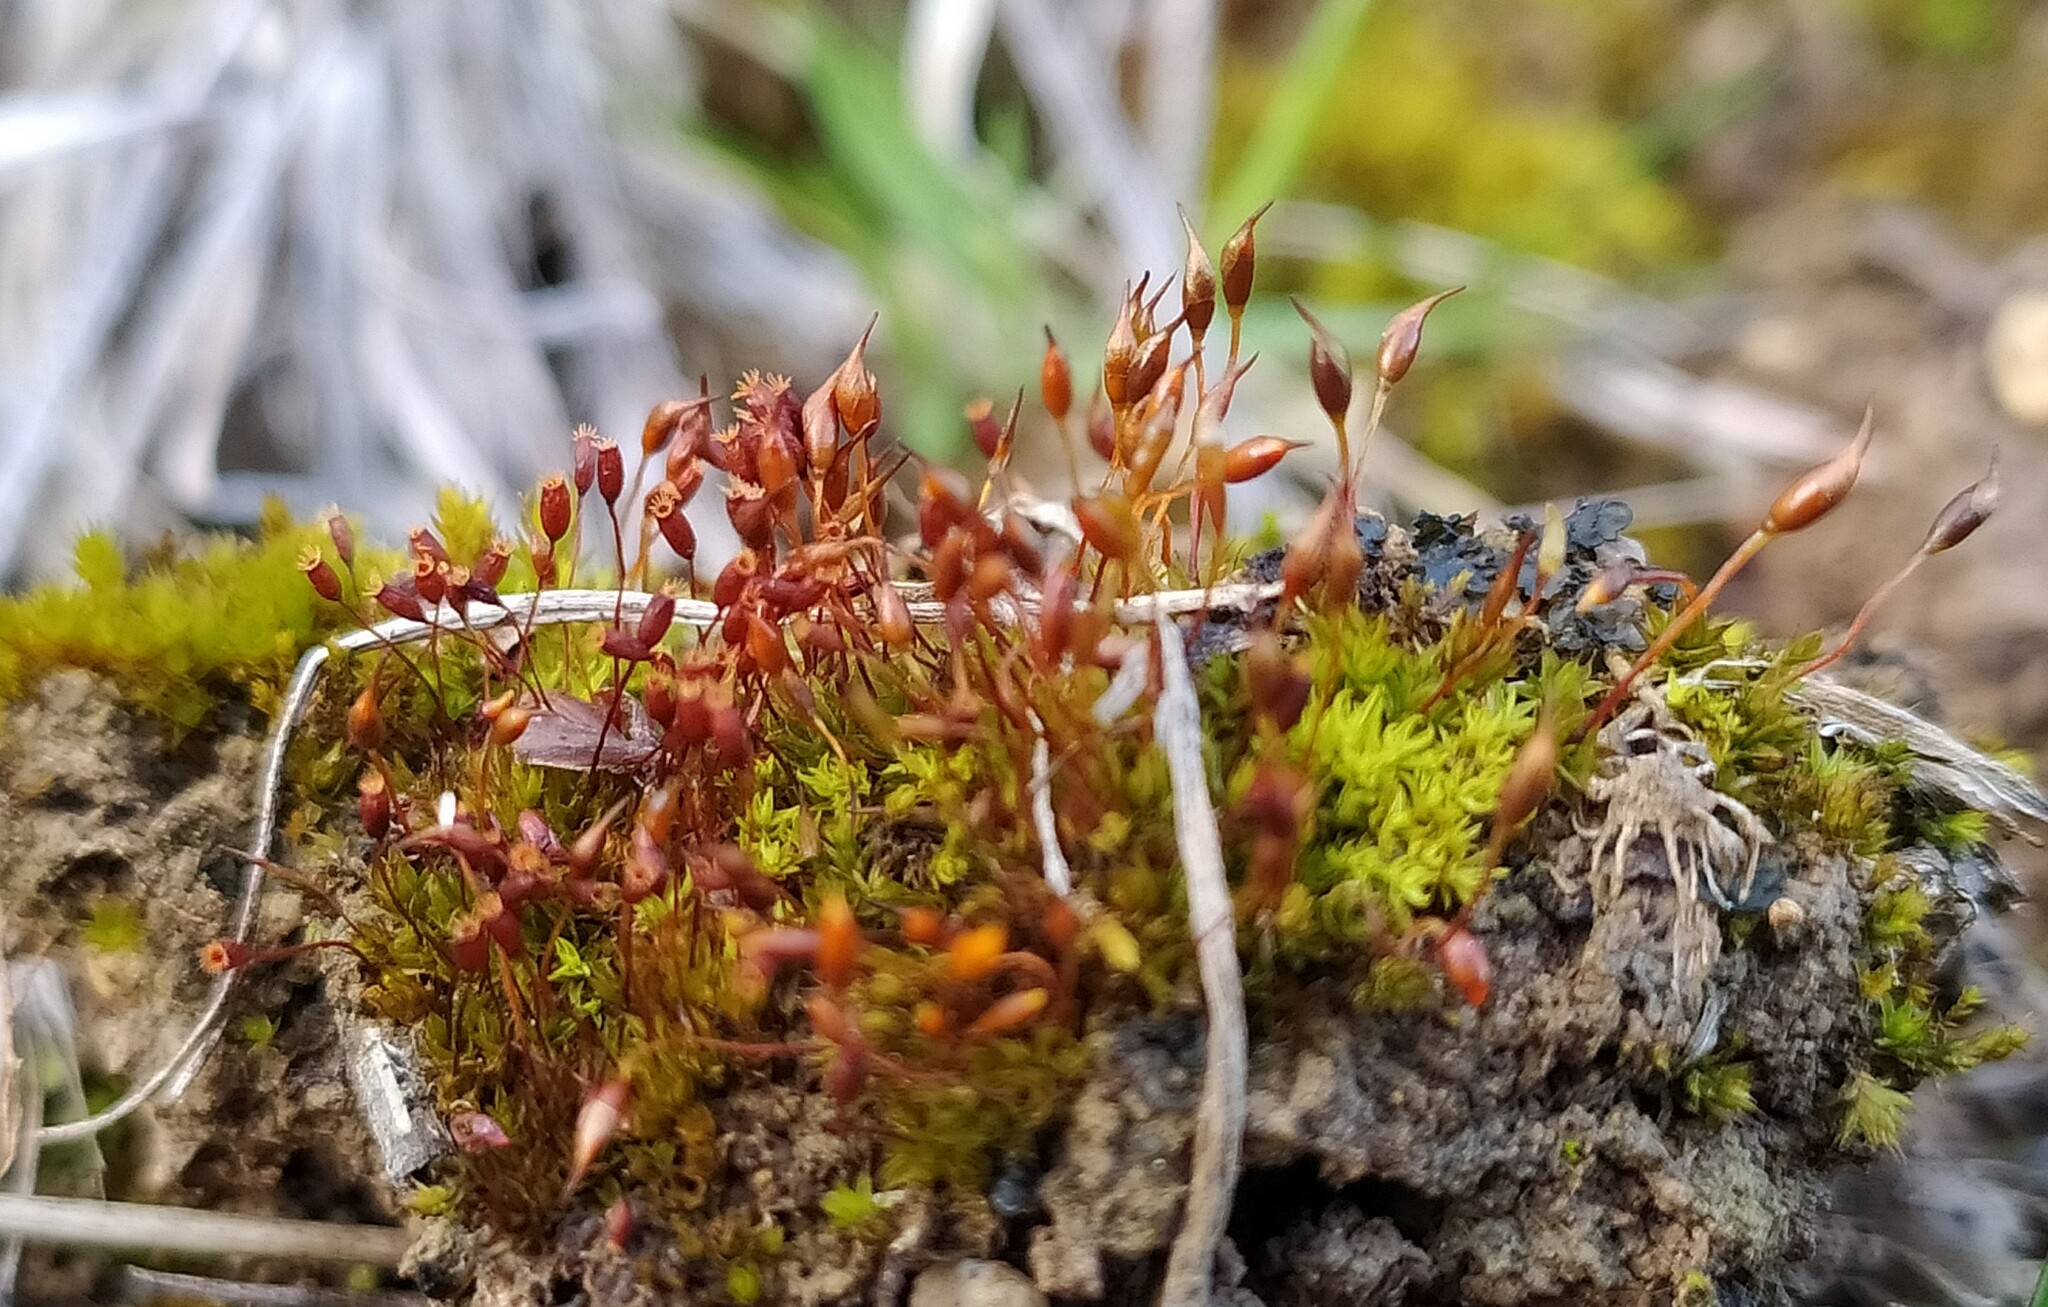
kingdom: Plantae
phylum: Bryophyta
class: Bryopsida
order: Pottiales
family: Pottiaceae
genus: Tortula
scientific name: Tortula lindbergii
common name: Lance-leaved pottia
